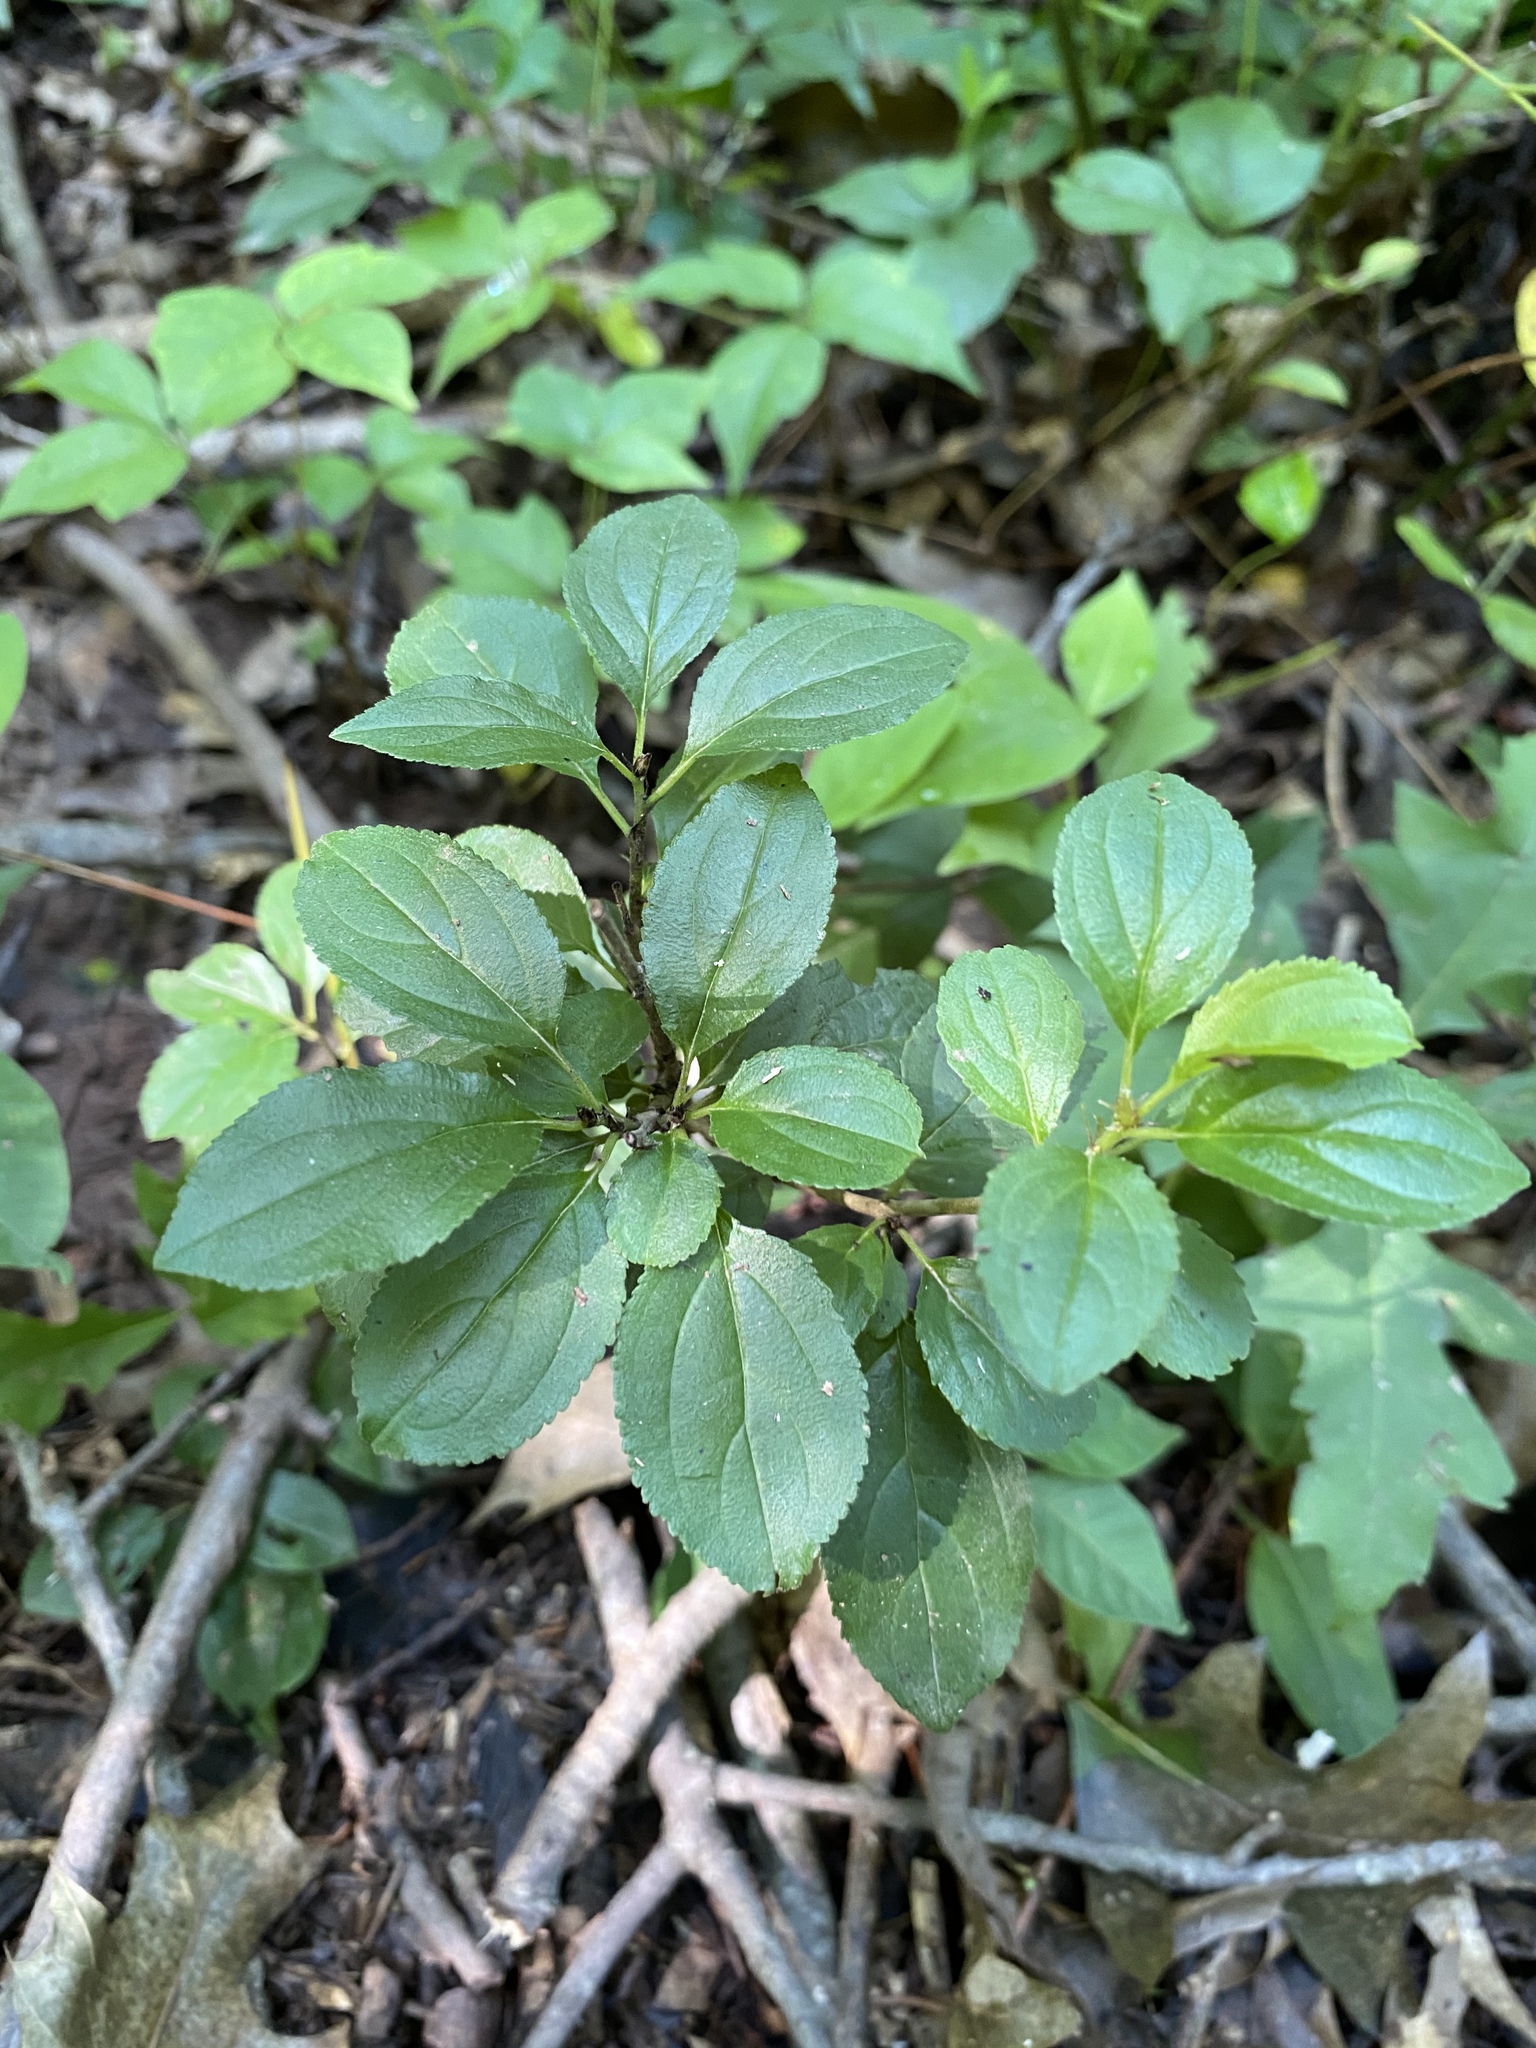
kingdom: Plantae
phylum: Tracheophyta
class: Magnoliopsida
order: Rosales
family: Rhamnaceae
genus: Rhamnus
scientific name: Rhamnus cathartica
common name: Common buckthorn
